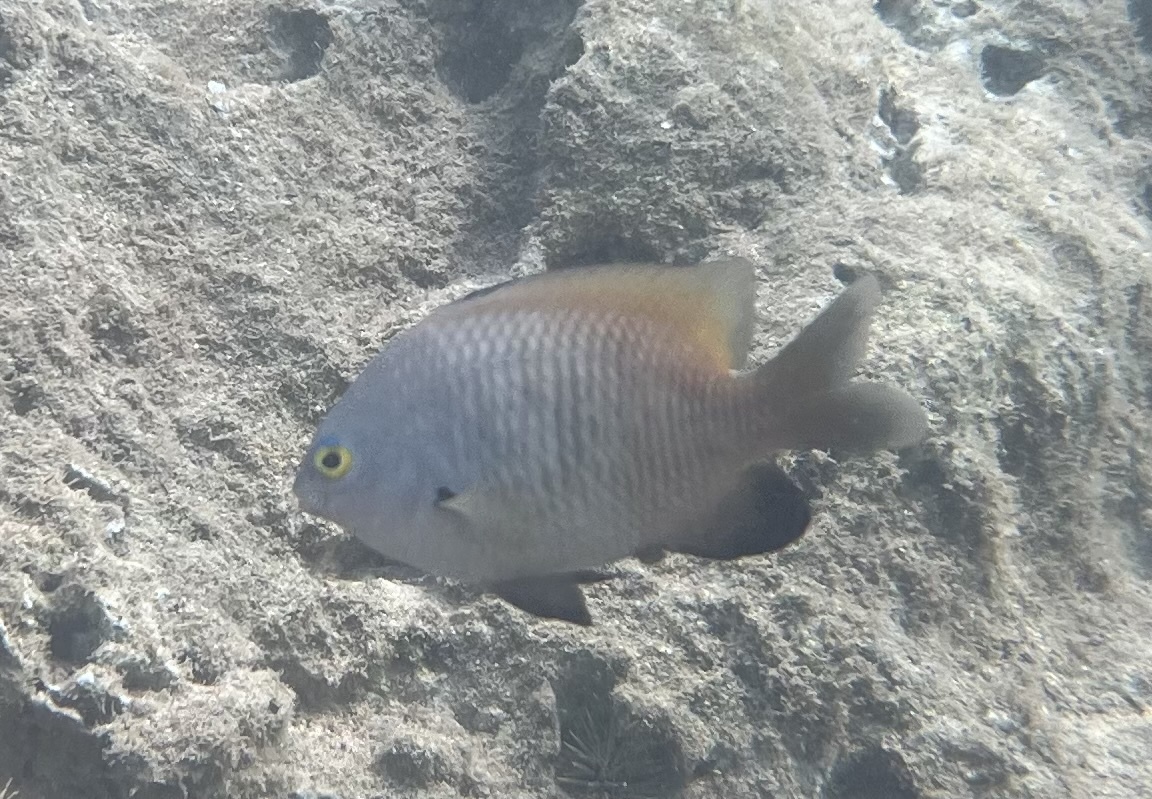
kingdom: Animalia
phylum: Chordata
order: Perciformes
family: Pomacentridae
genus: Stegastes
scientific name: Stegastes fasciolatus
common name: Pacific gregory
